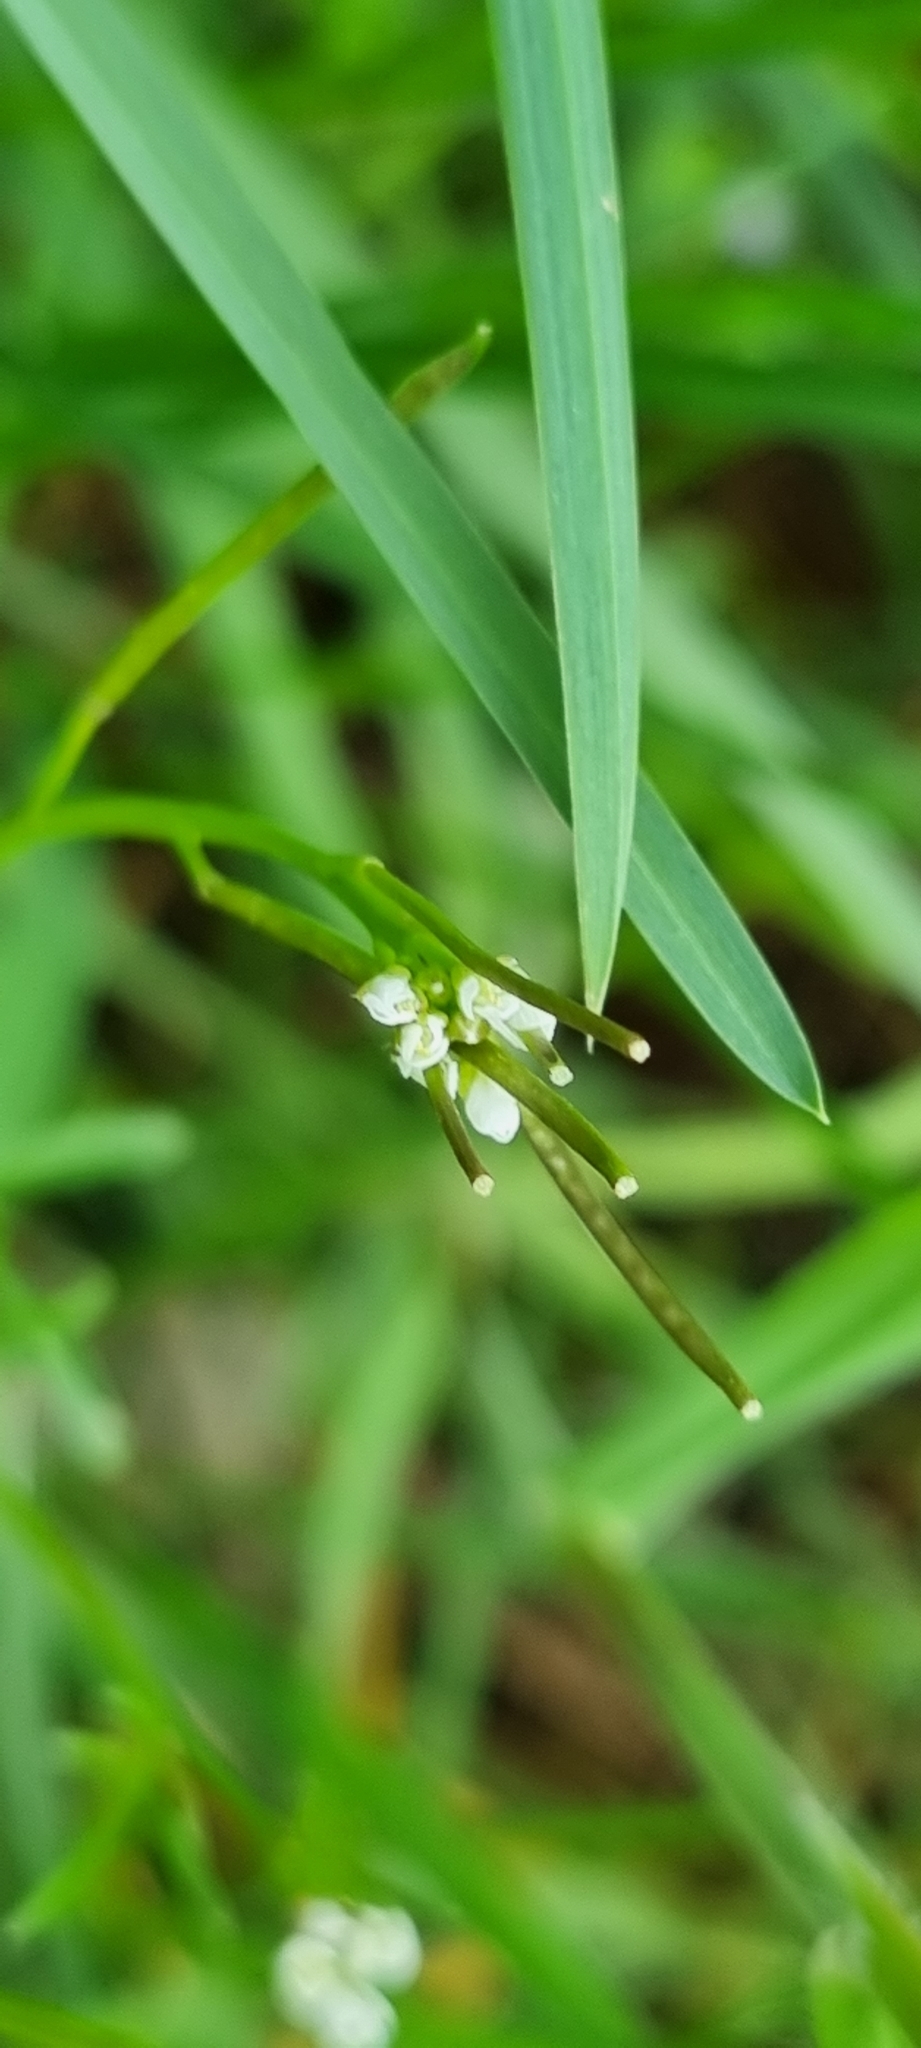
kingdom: Plantae
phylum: Tracheophyta
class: Magnoliopsida
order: Brassicales
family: Brassicaceae
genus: Cardamine
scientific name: Cardamine hirsuta
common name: Hairy bittercress
